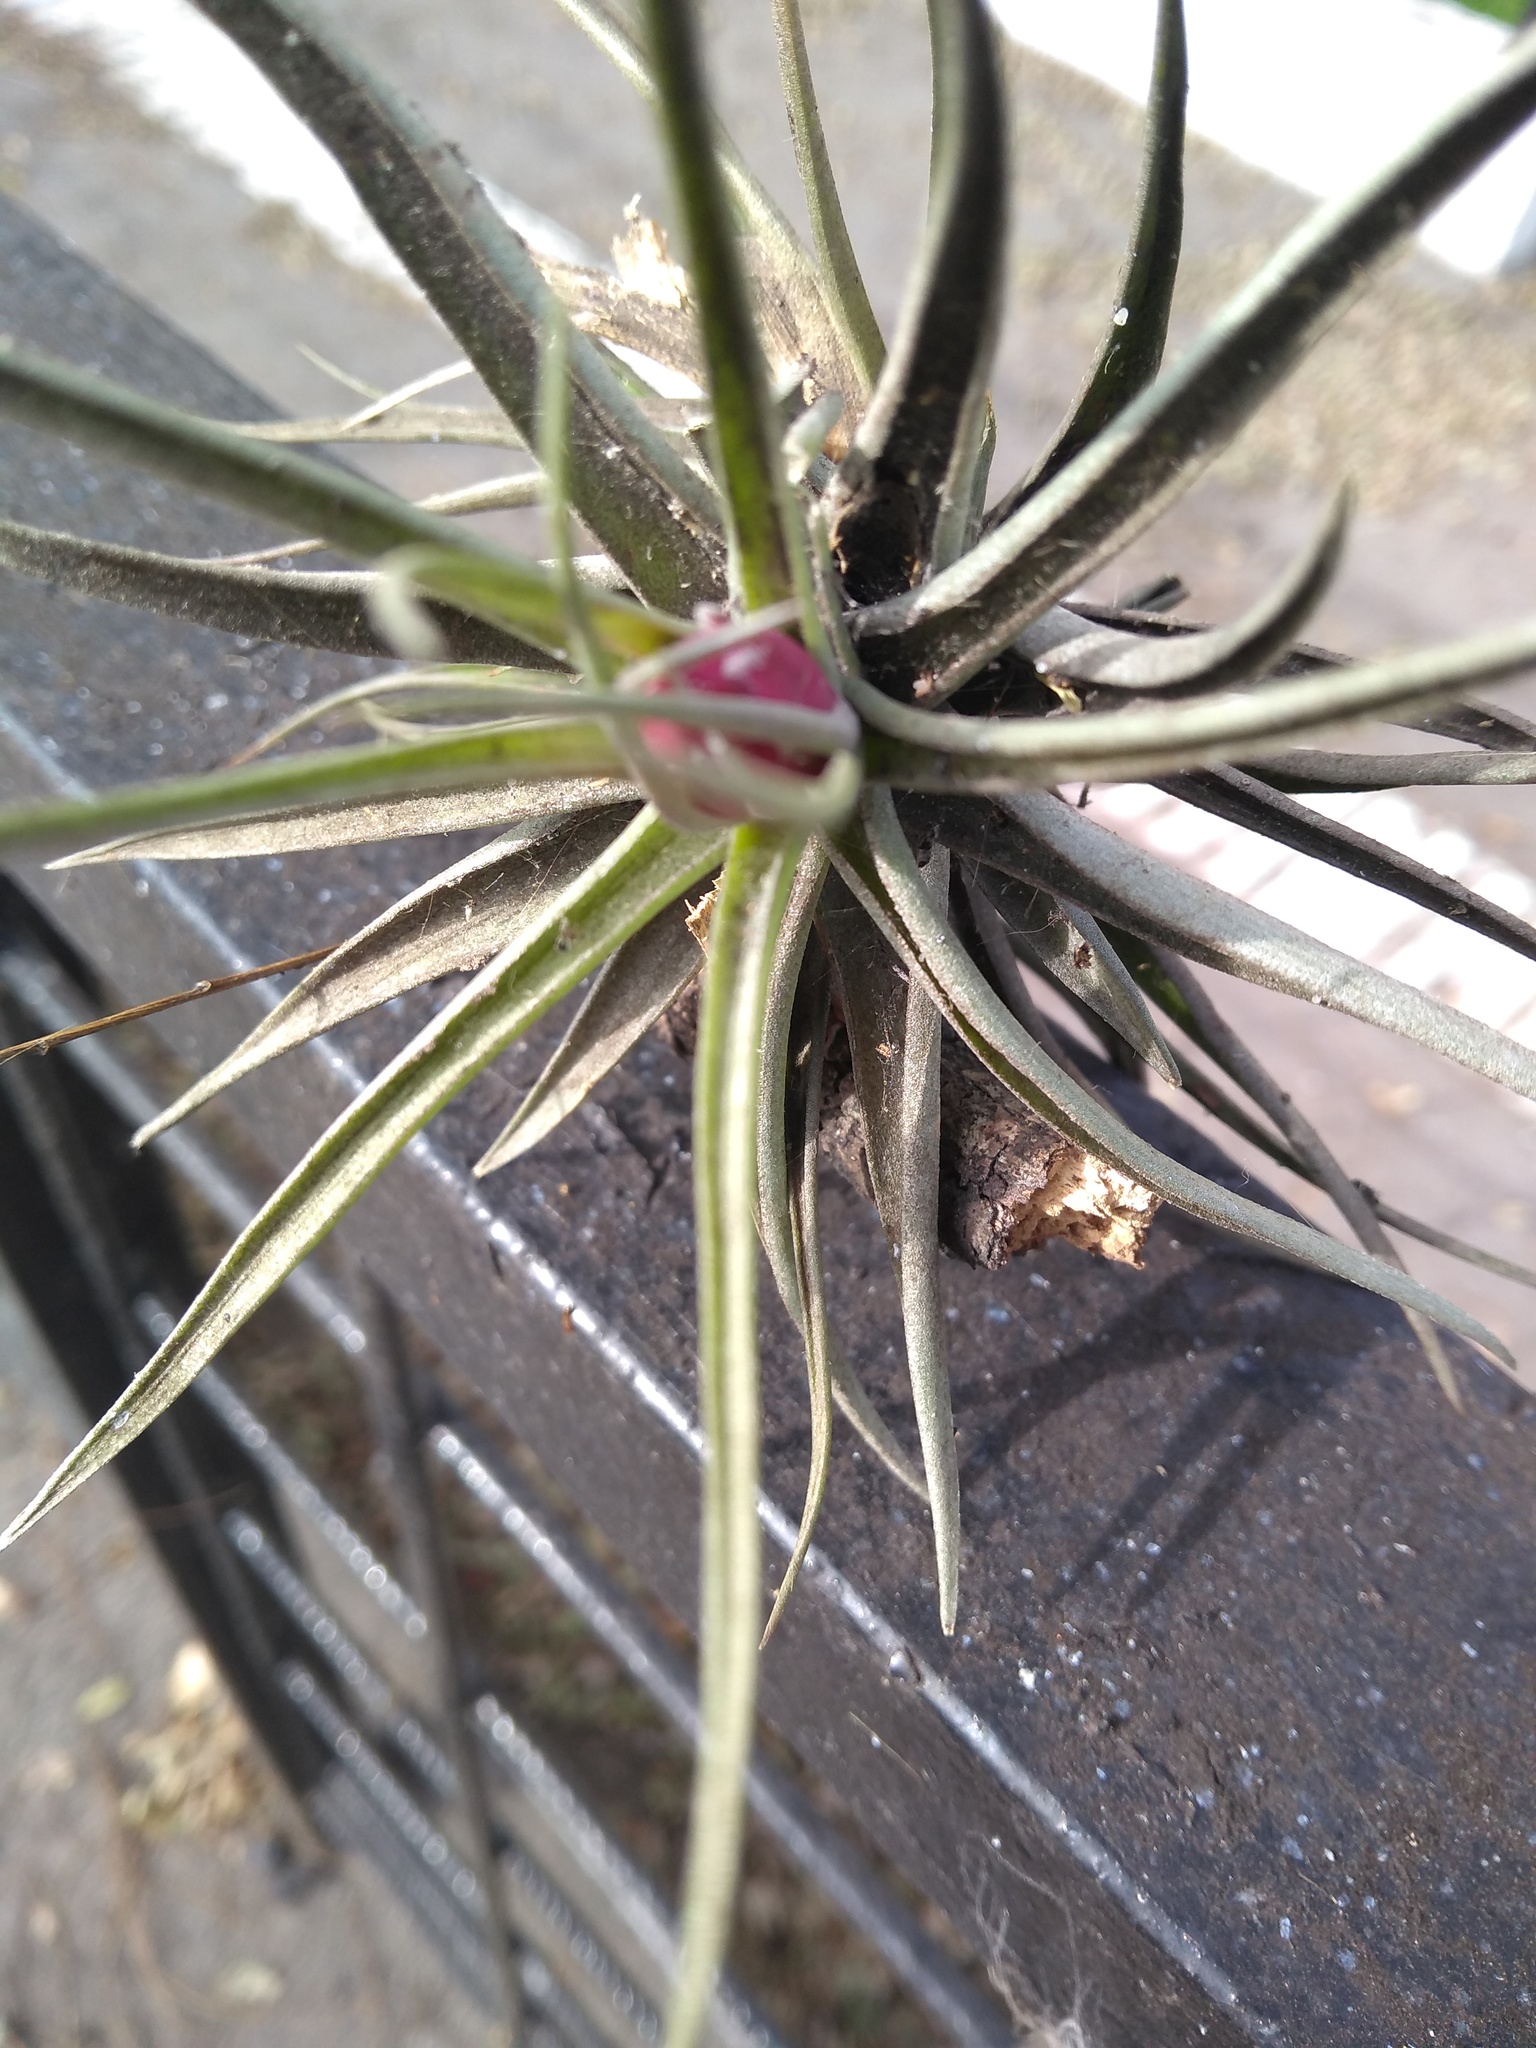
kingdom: Plantae
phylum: Tracheophyta
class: Liliopsida
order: Poales
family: Bromeliaceae
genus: Tillandsia
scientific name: Tillandsia aeranthos
